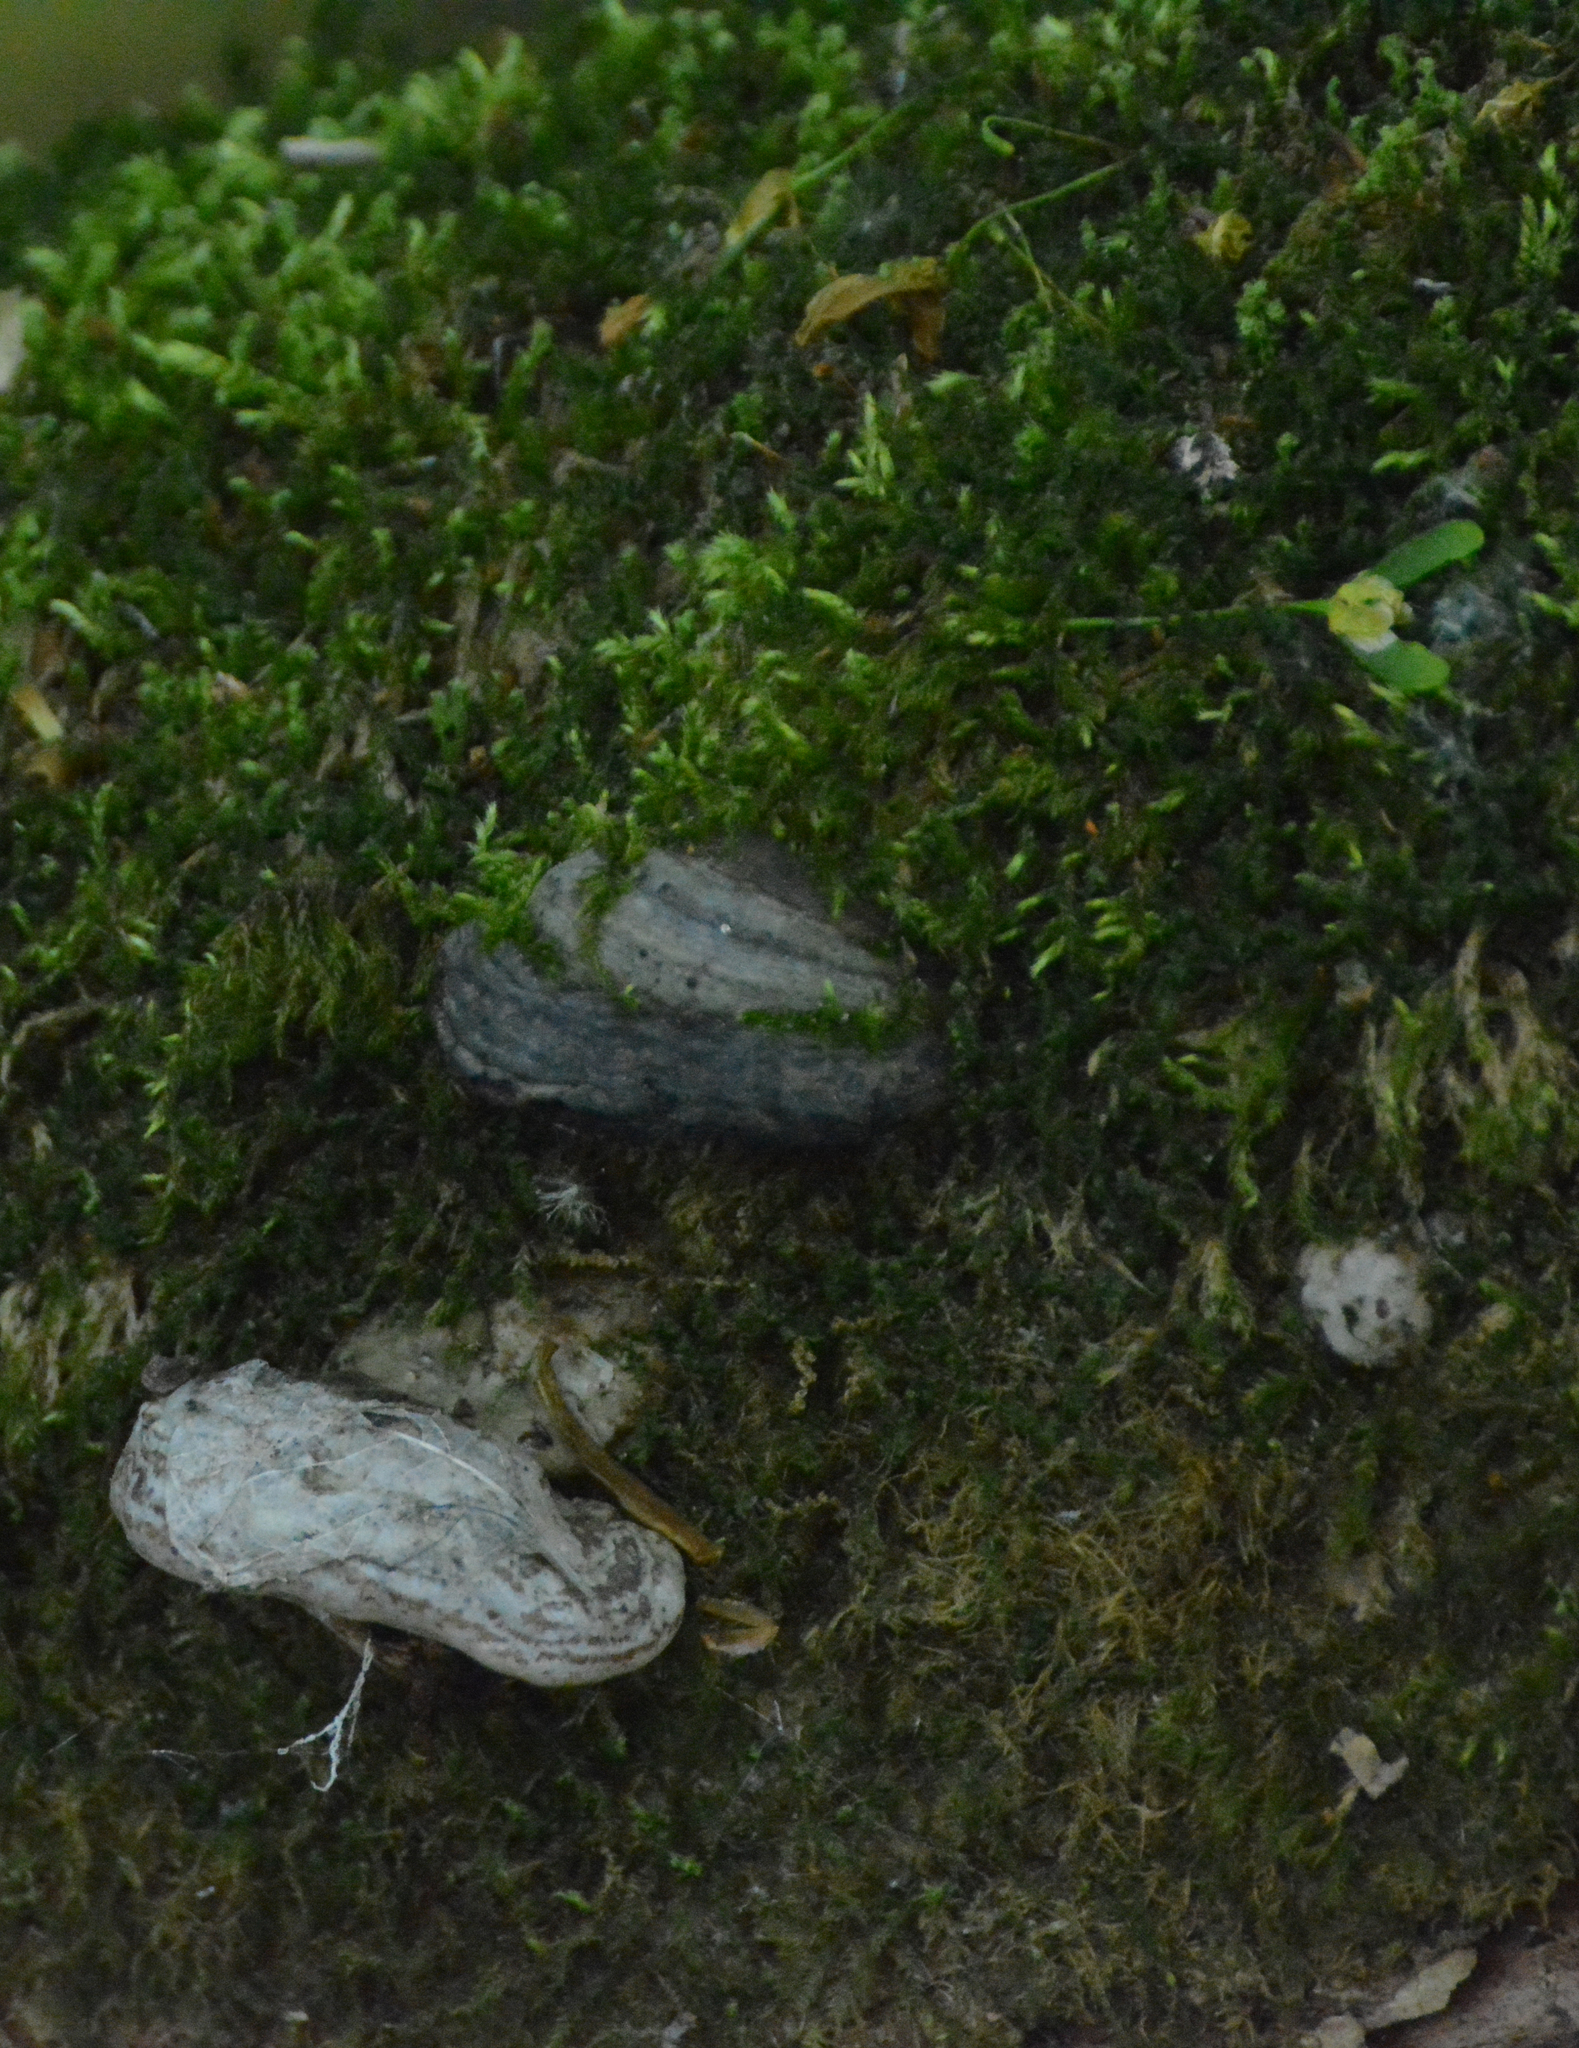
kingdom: Fungi
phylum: Basidiomycota
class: Agaricomycetes
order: Polyporales
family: Polyporaceae
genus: Fomes
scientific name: Fomes fomentarius
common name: Hoof fungus
